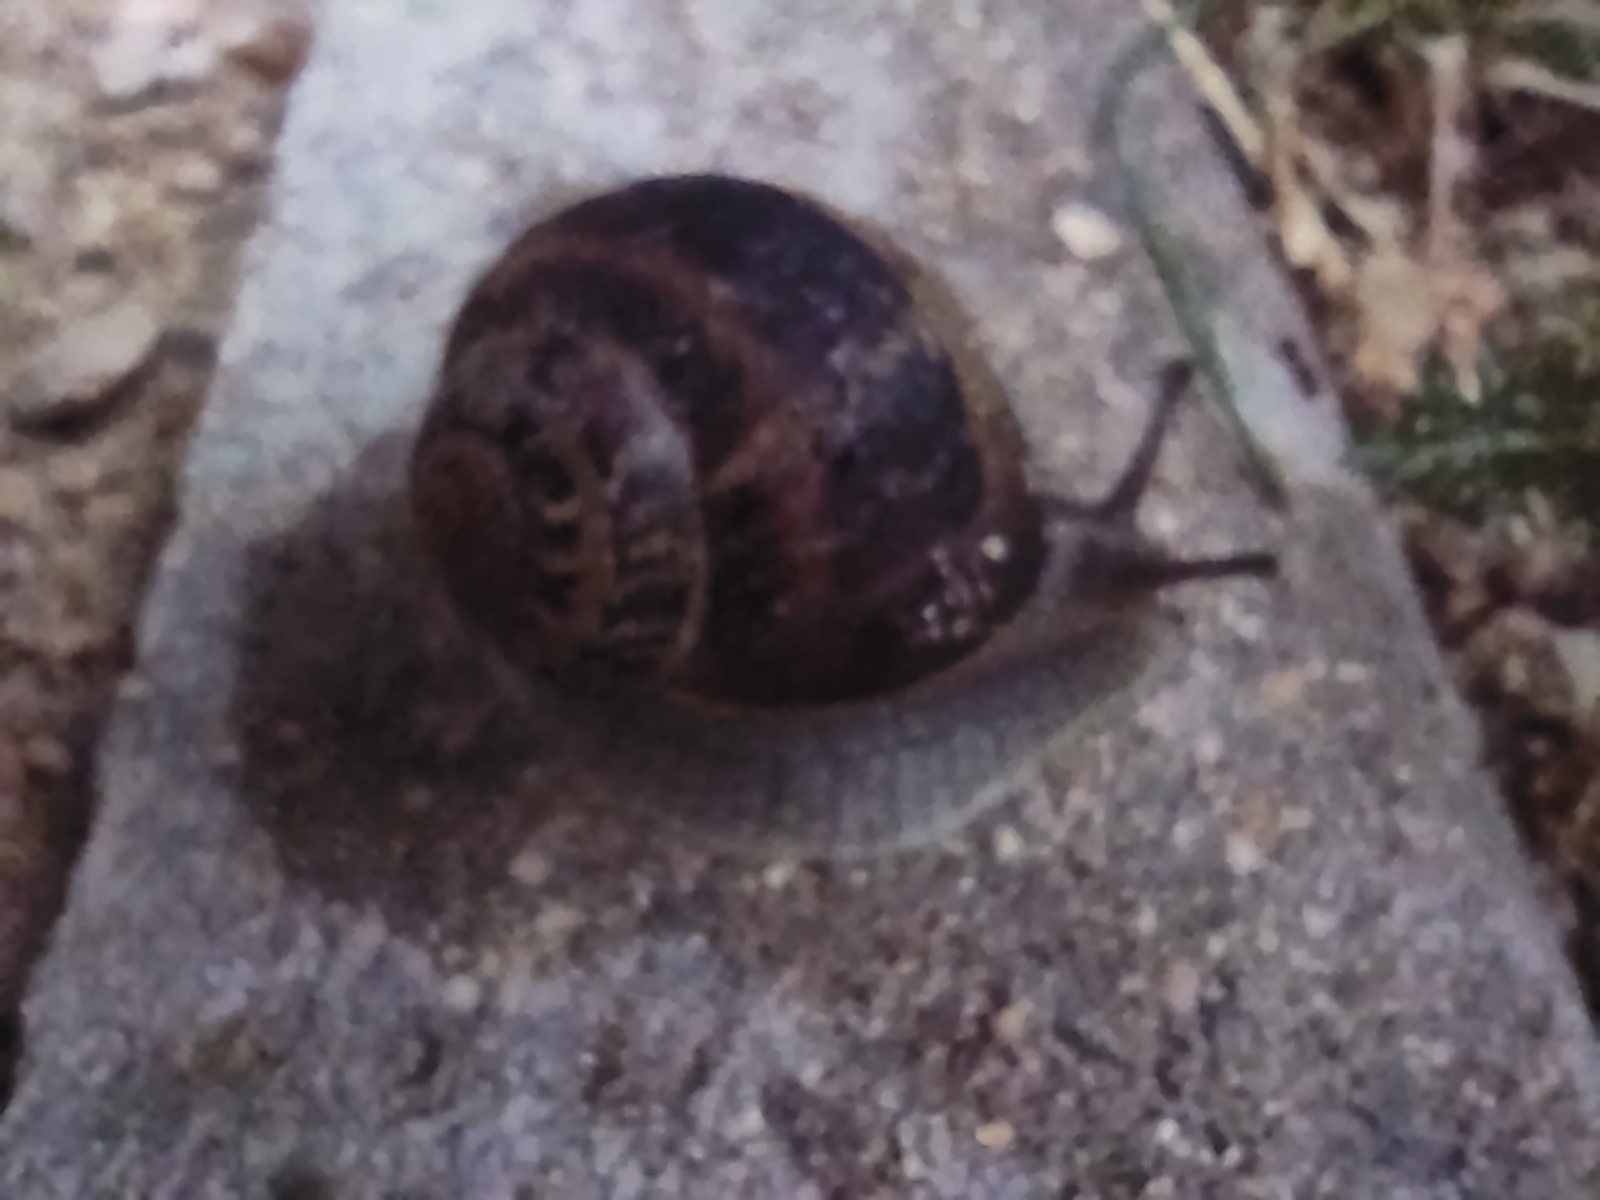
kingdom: Animalia
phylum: Mollusca
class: Gastropoda
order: Stylommatophora
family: Helicidae
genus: Cornu
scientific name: Cornu aspersum
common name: Brown garden snail
